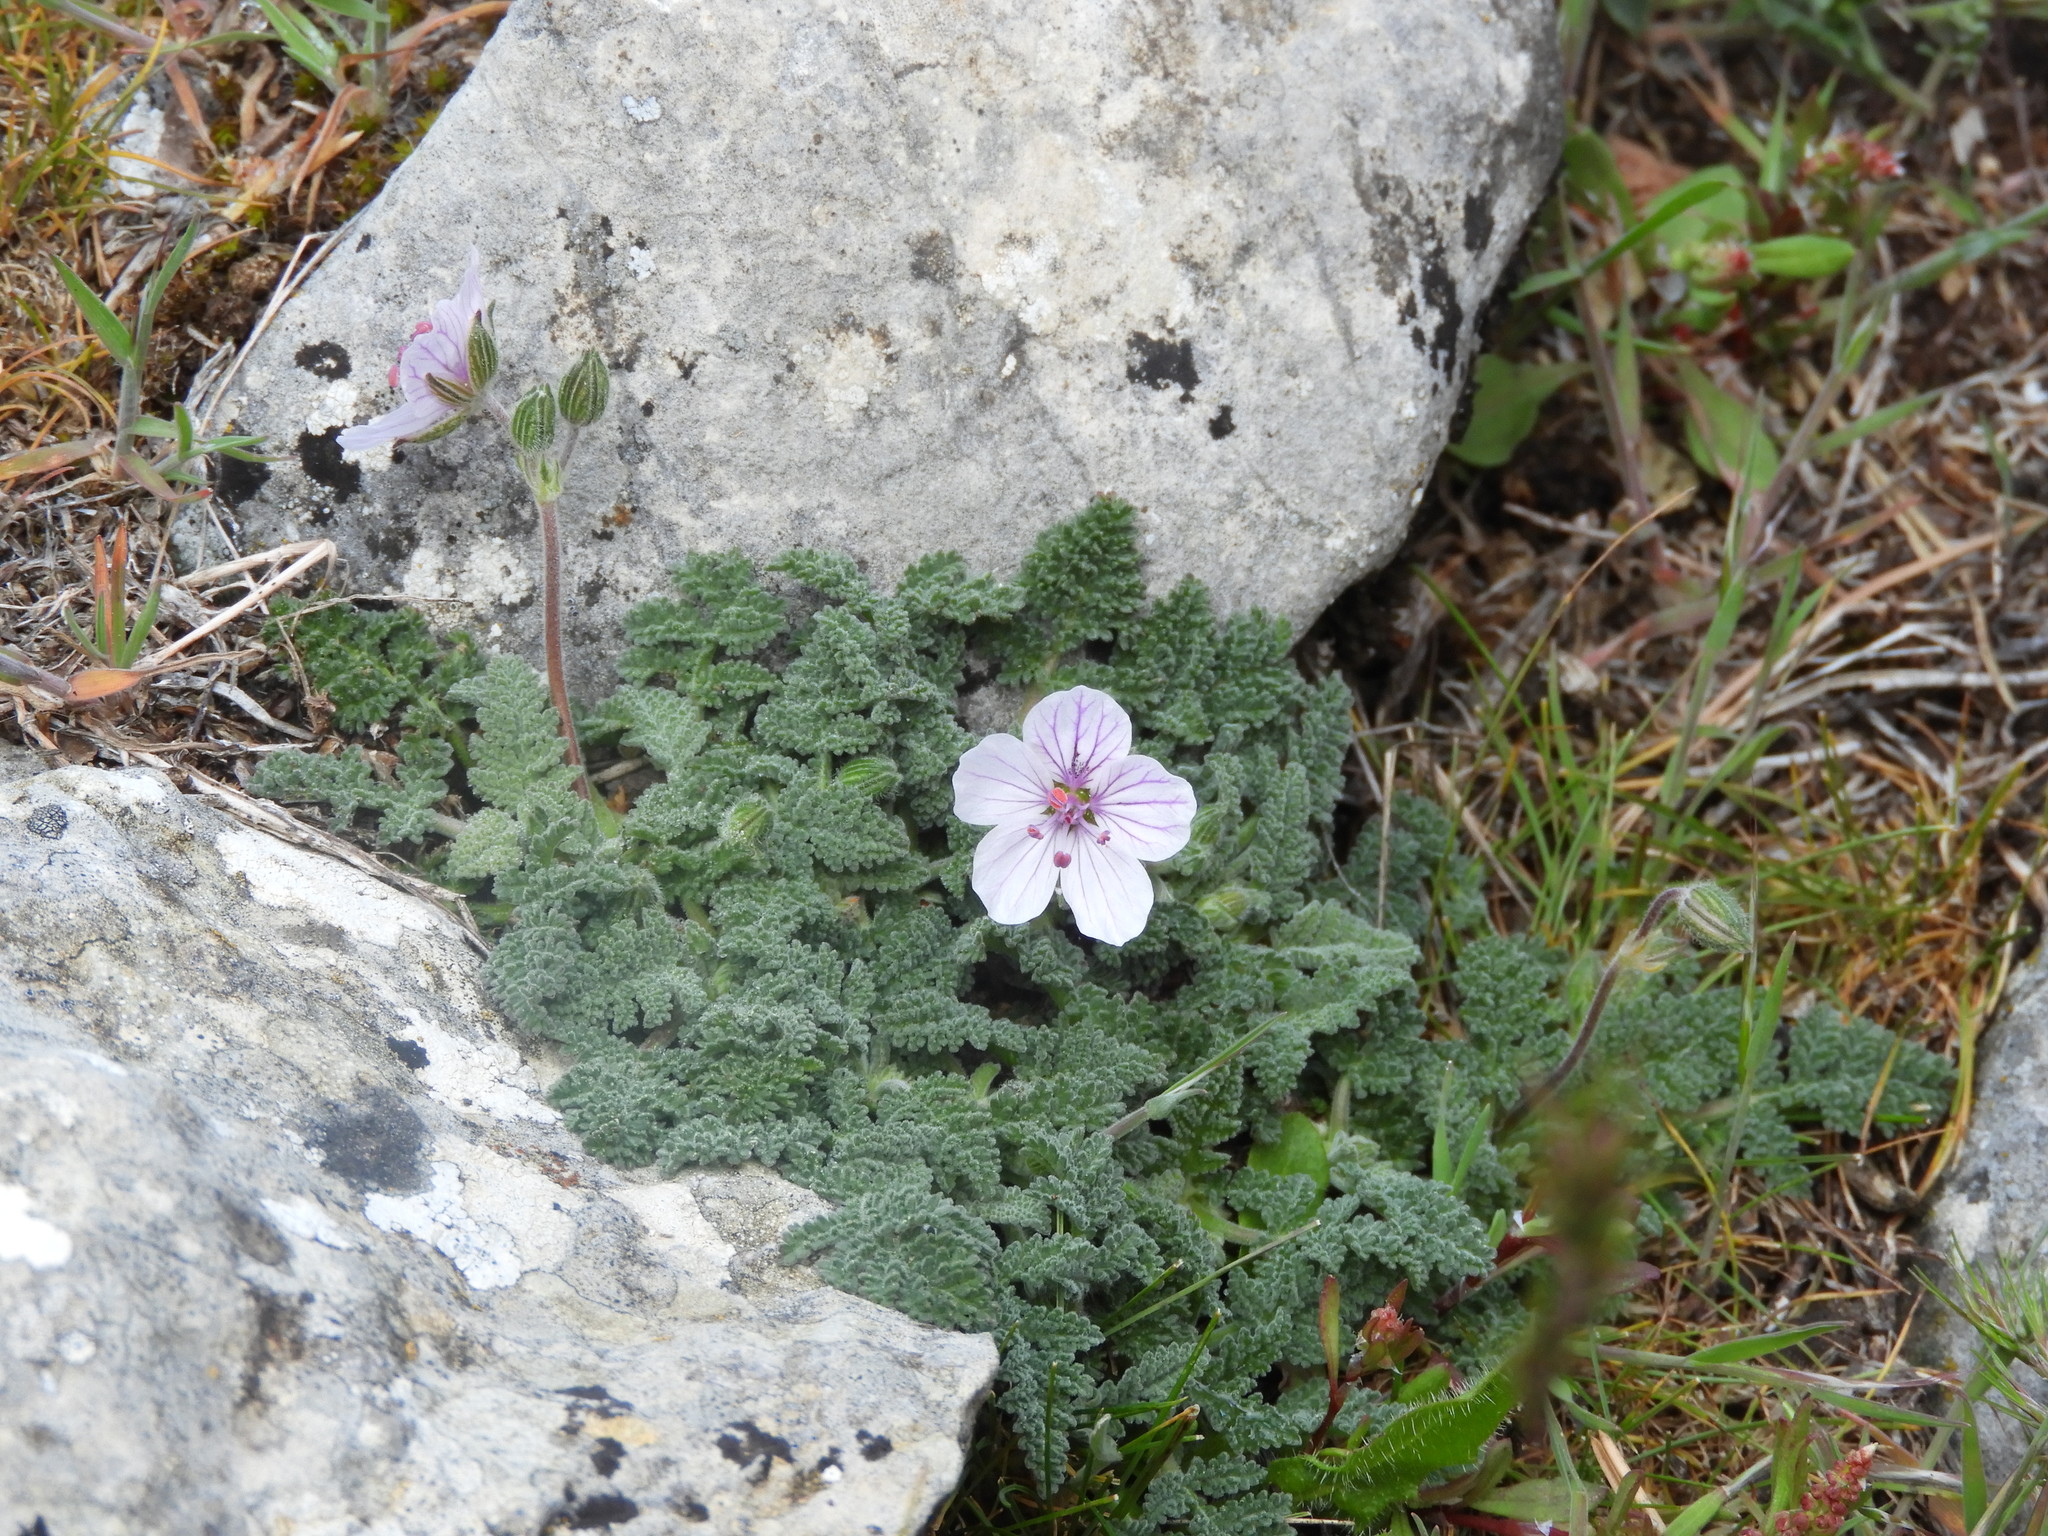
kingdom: Plantae
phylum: Tracheophyta
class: Magnoliopsida
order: Geraniales
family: Geraniaceae
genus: Erodium
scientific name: Erodium cheilanthifolium
